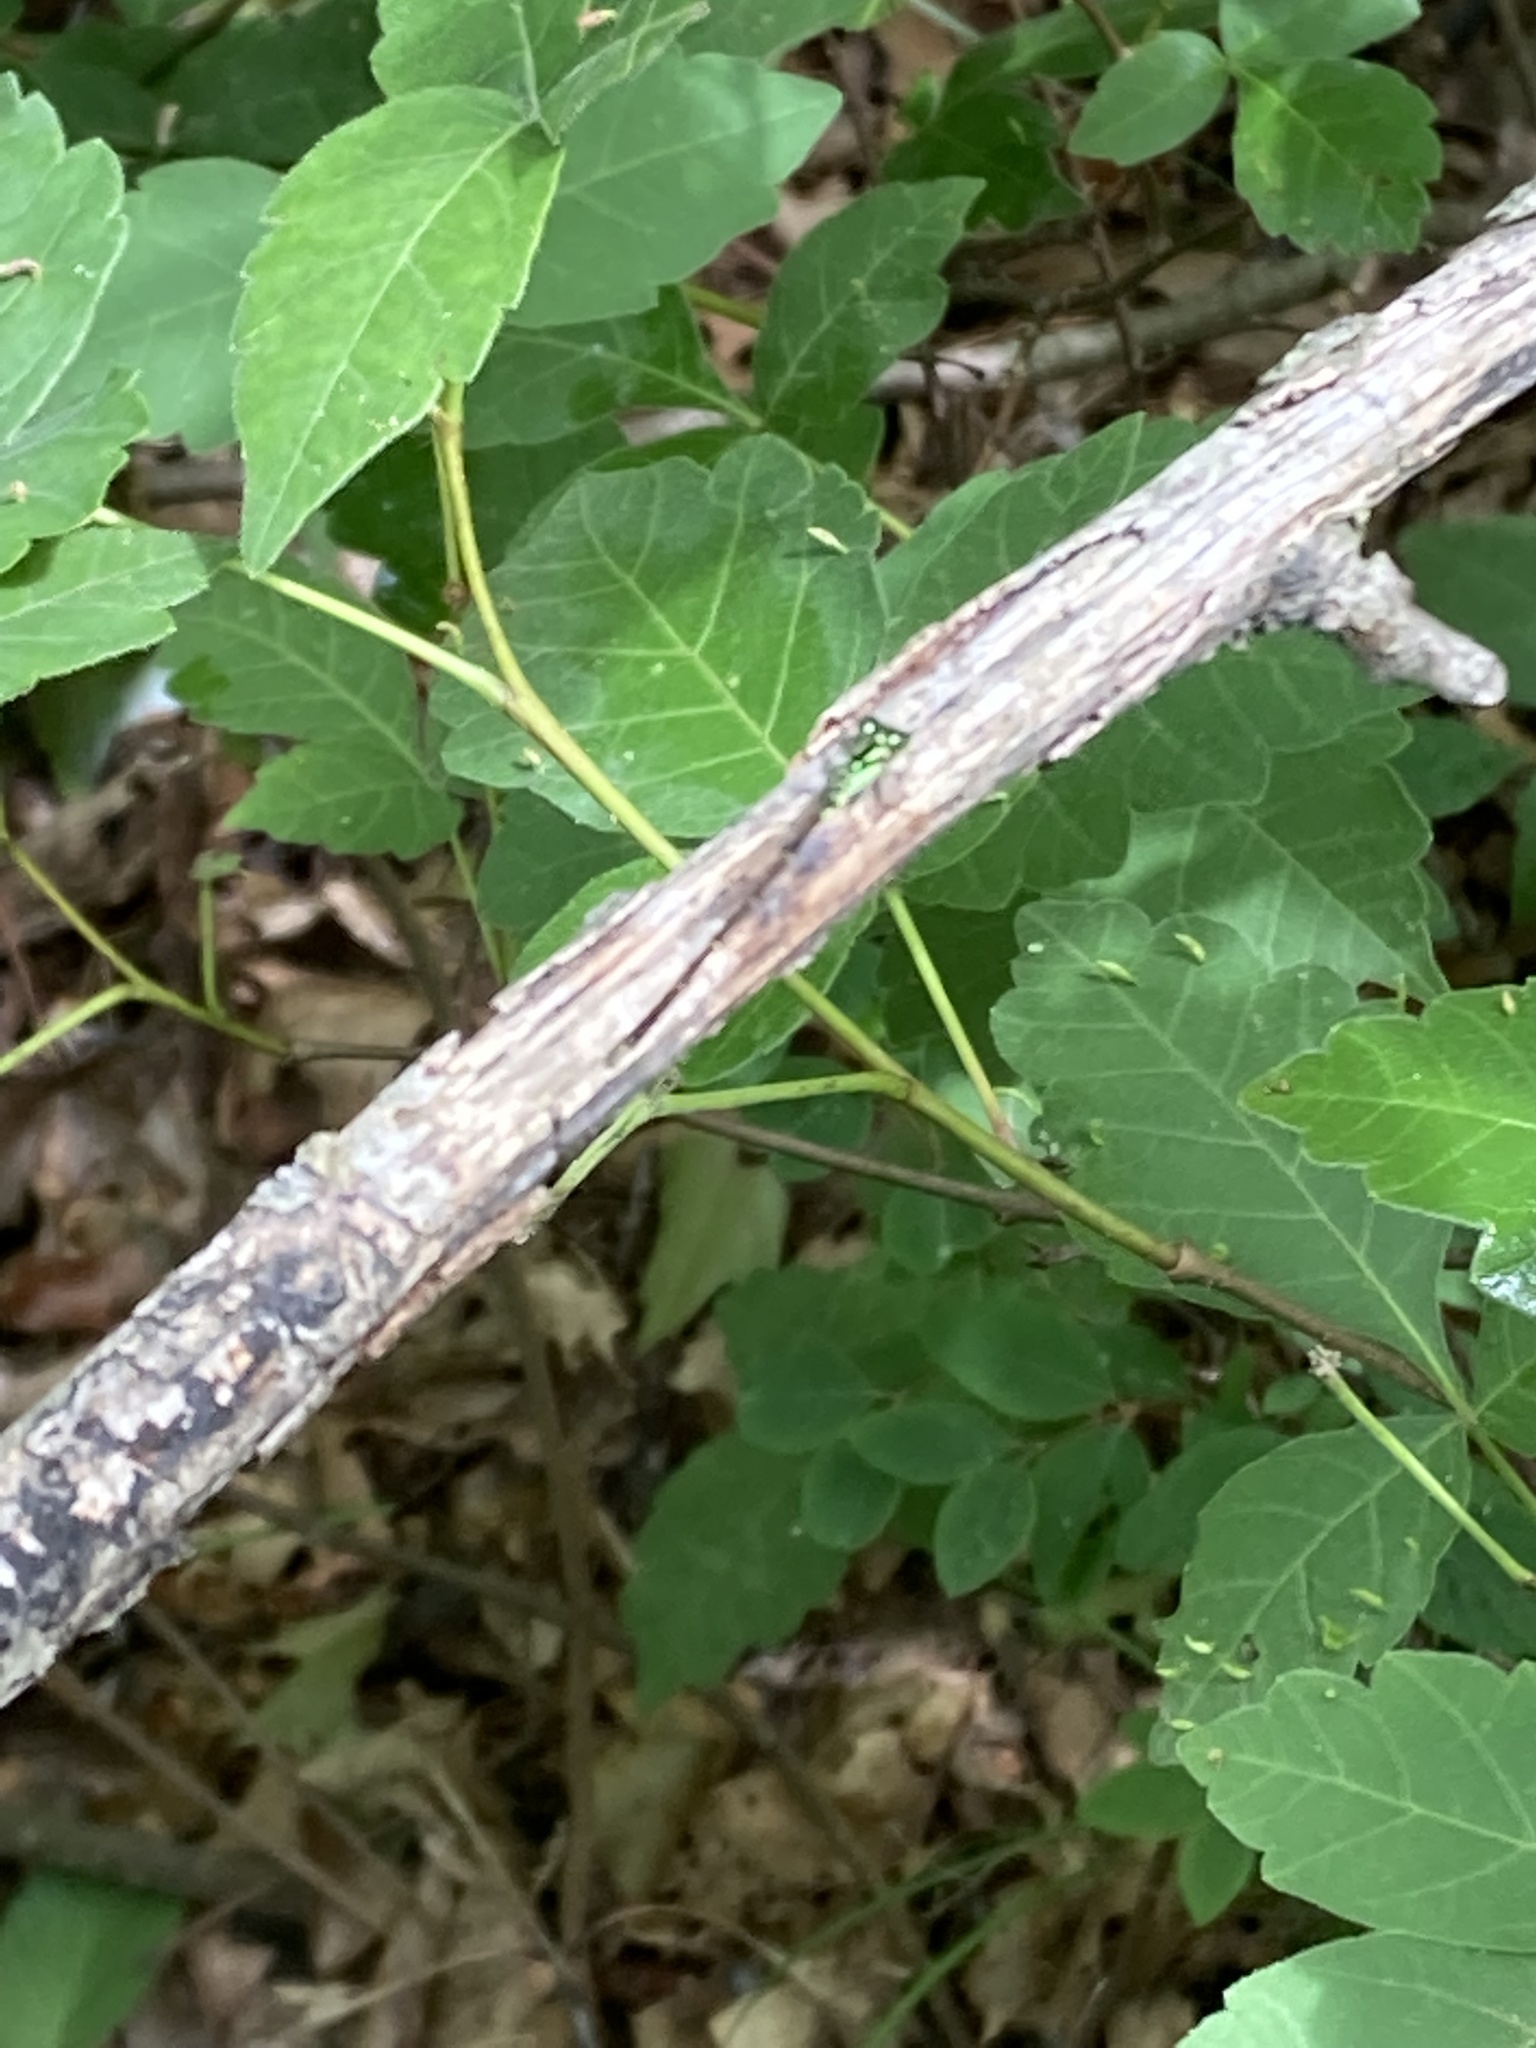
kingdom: Animalia
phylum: Arthropoda
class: Insecta
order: Odonata
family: Coenagrionidae
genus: Ischnura
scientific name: Ischnura posita
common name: Fragile forktail
